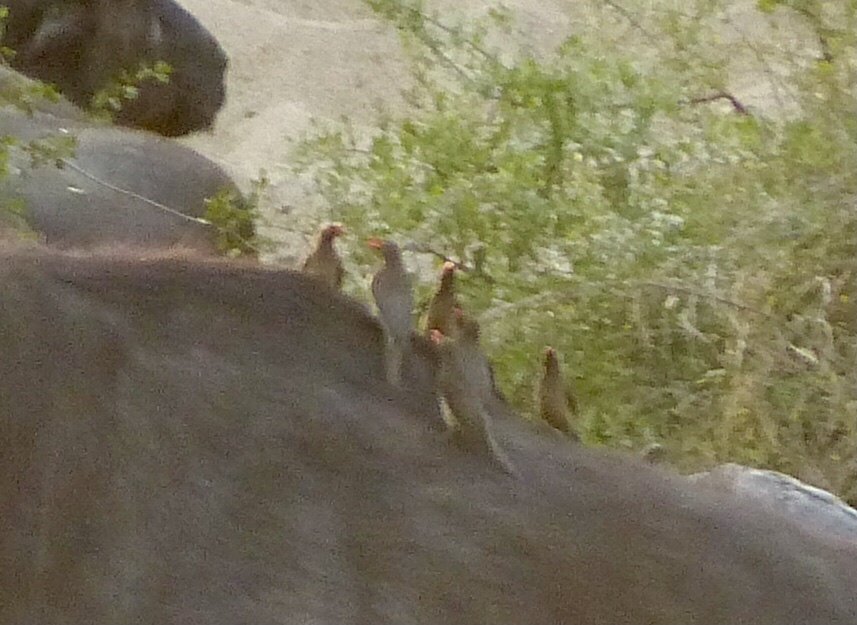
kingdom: Animalia
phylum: Chordata
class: Aves
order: Passeriformes
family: Buphagidae
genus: Buphagus
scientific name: Buphagus erythrorhynchus
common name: Red-billed oxpecker
